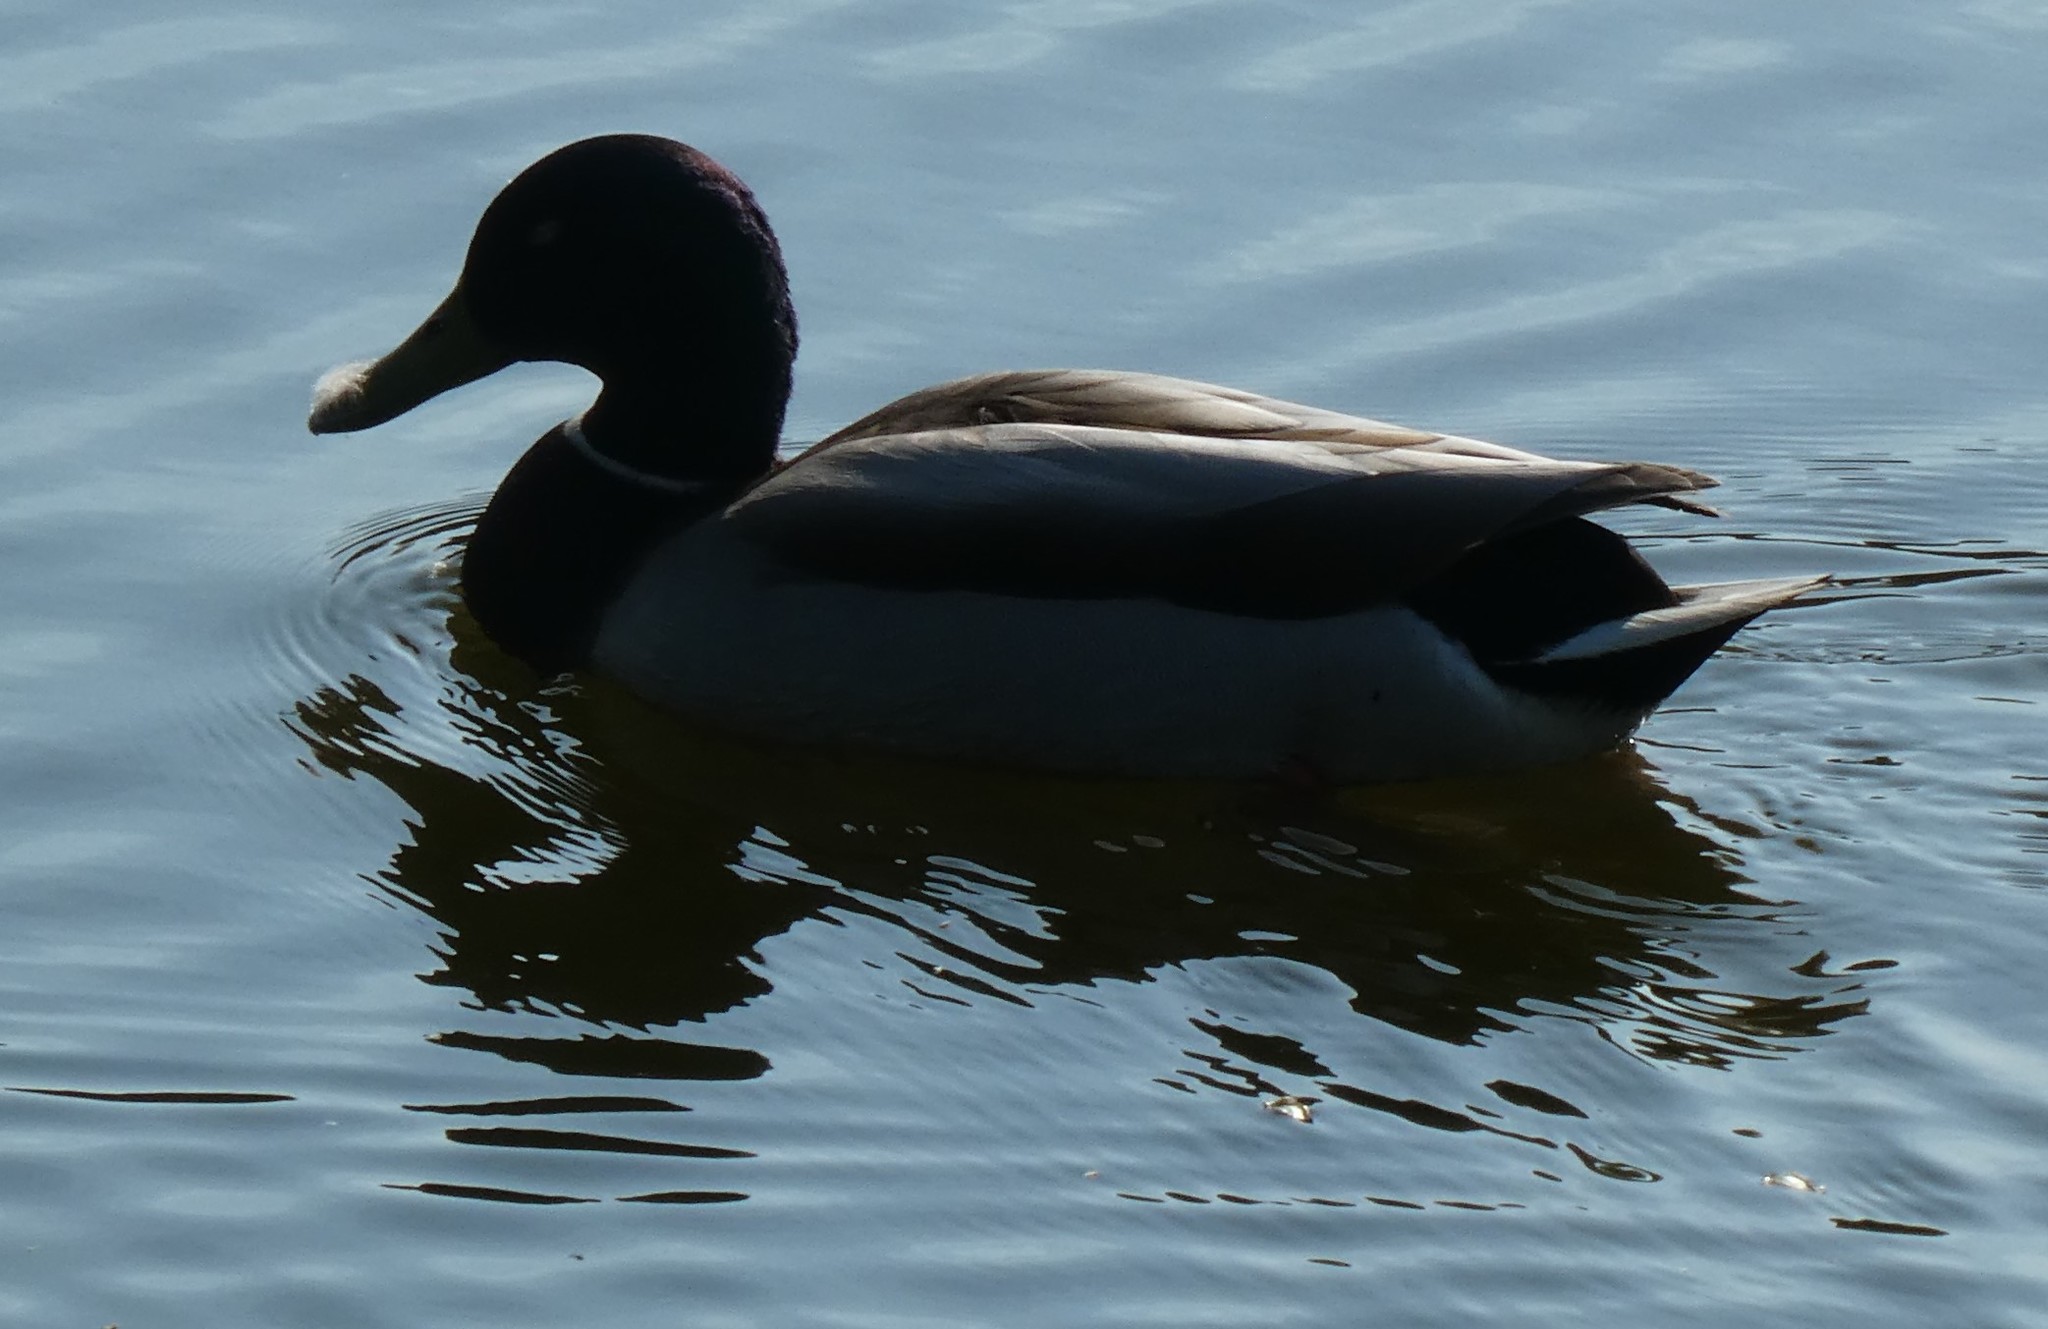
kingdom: Animalia
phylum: Chordata
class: Aves
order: Anseriformes
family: Anatidae
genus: Anas
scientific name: Anas platyrhynchos
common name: Mallard
